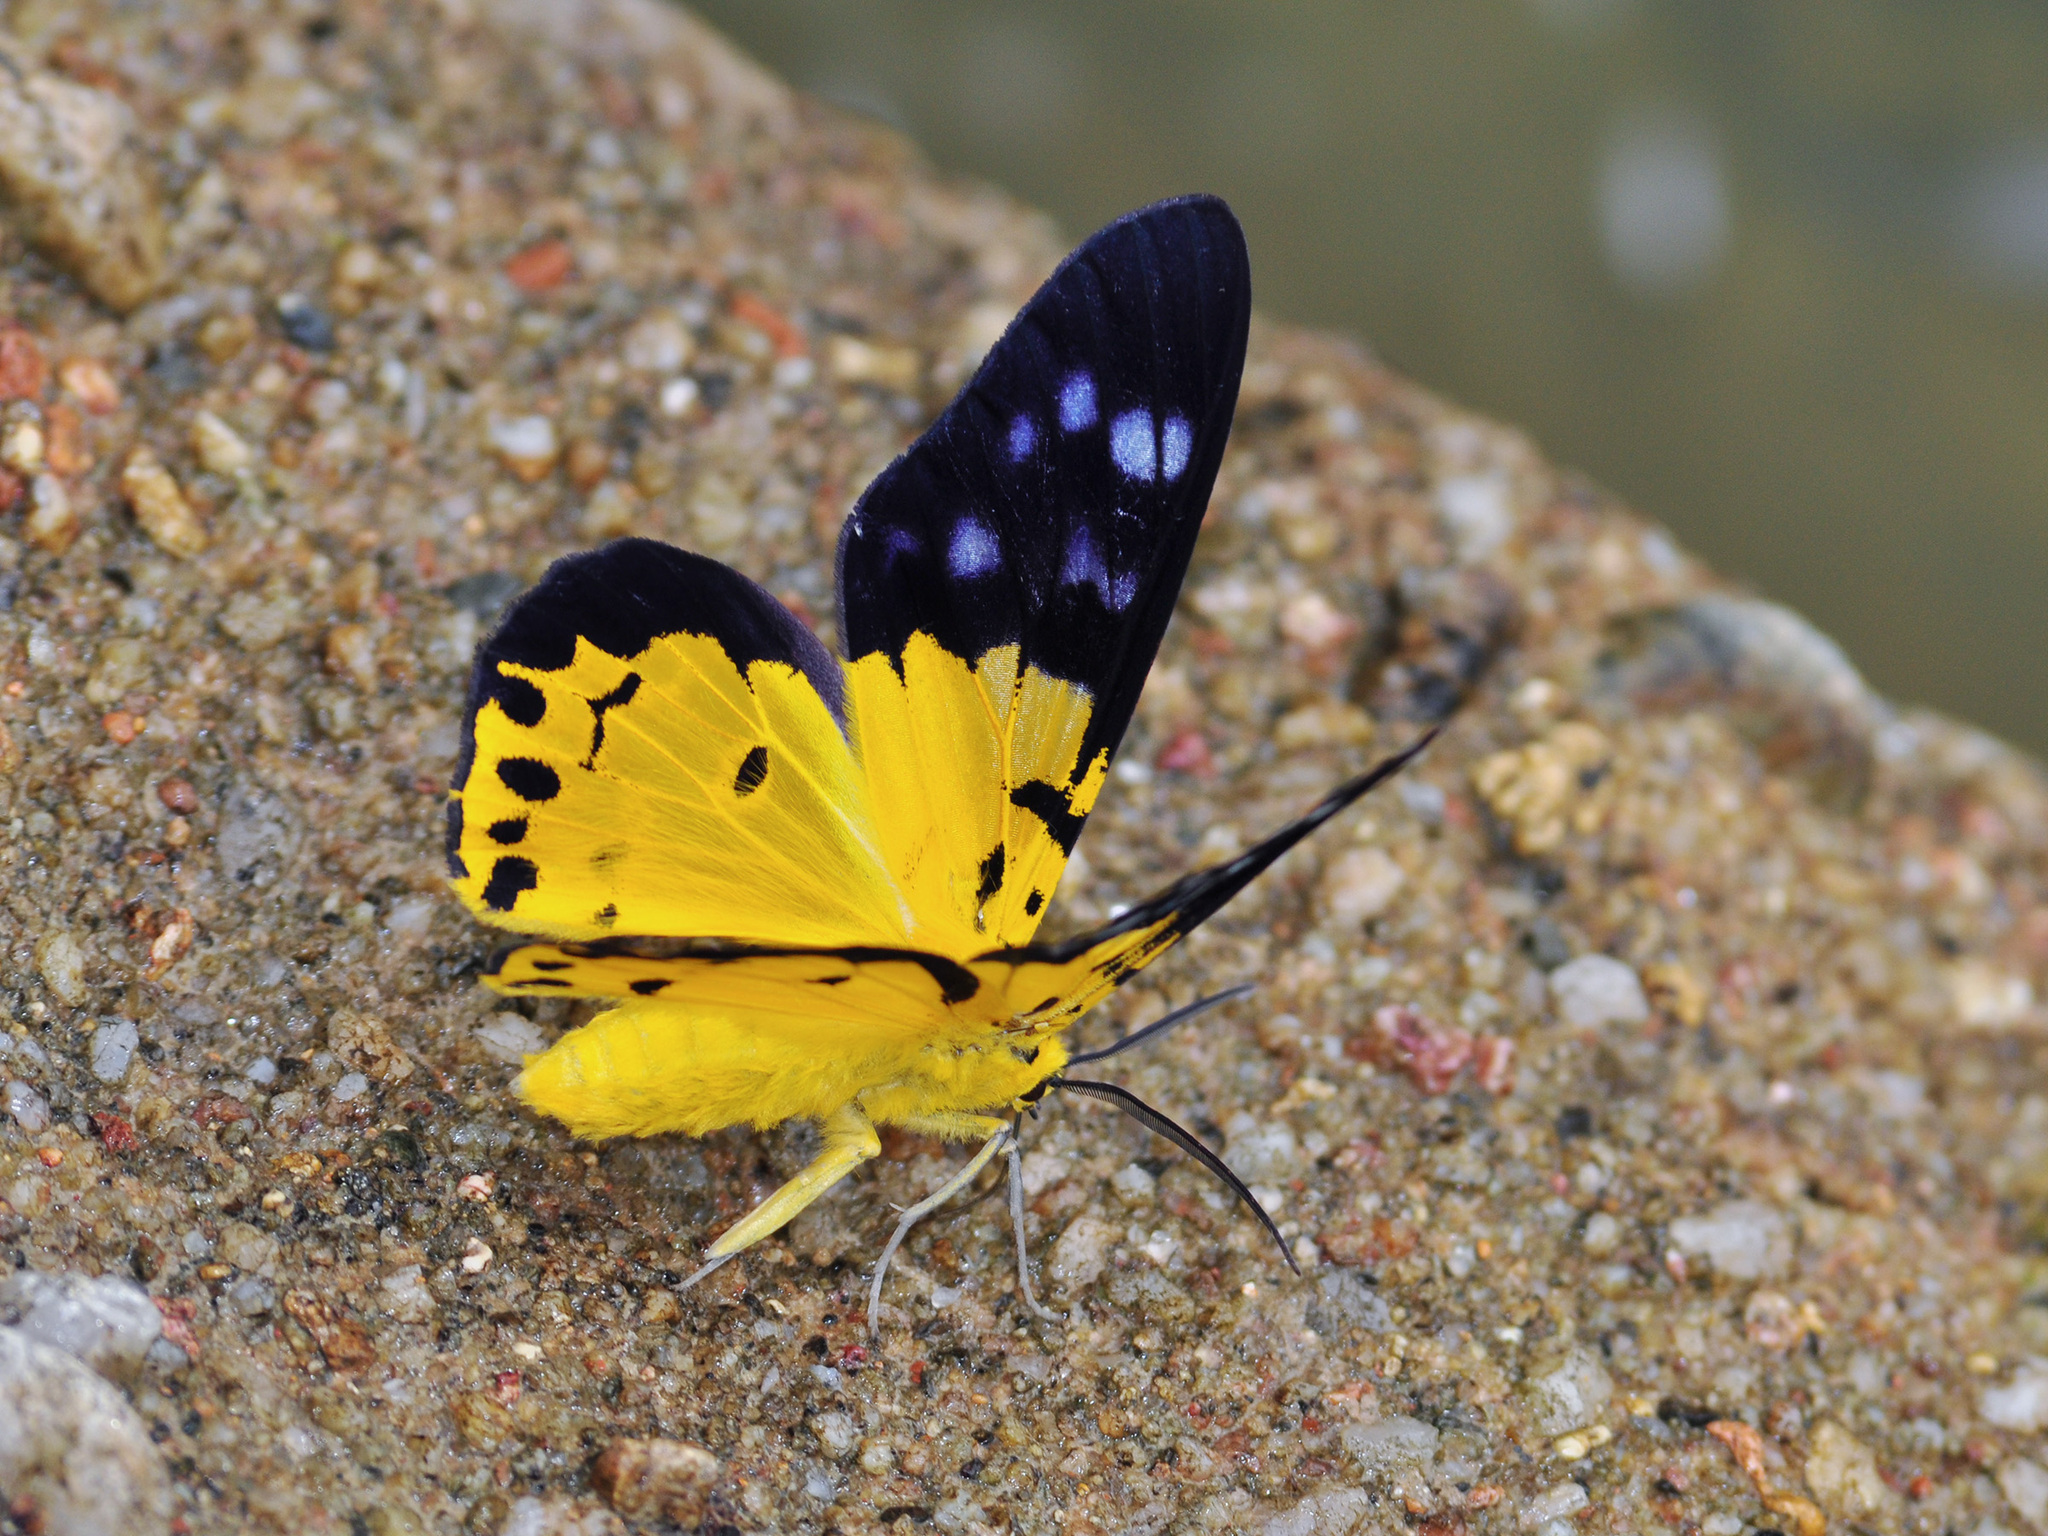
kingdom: Animalia
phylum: Arthropoda
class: Insecta
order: Lepidoptera
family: Geometridae
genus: Dysphania
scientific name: Dysphania sagana
